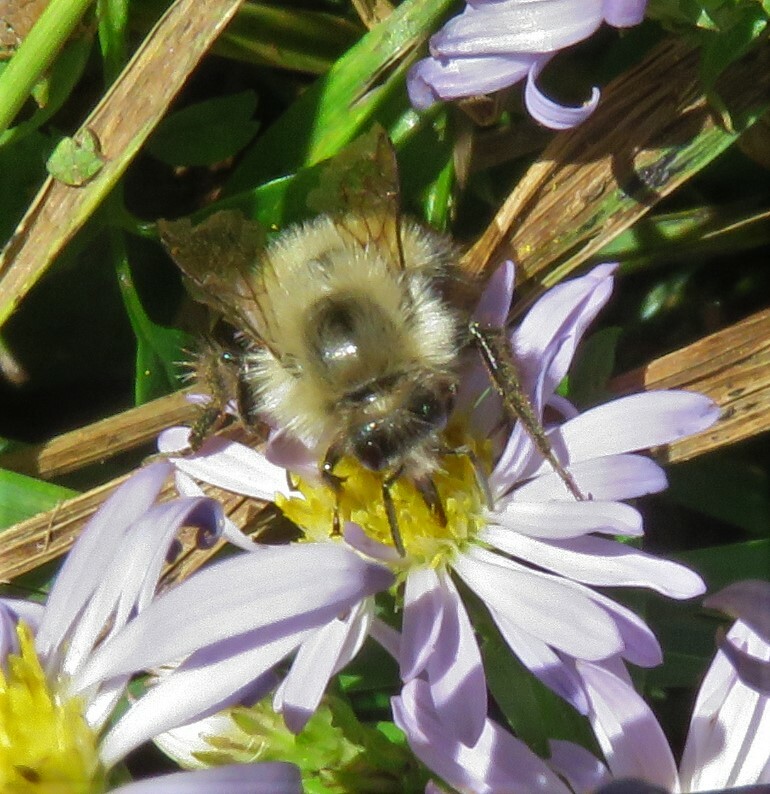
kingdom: Animalia
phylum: Arthropoda
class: Insecta
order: Hymenoptera
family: Apidae
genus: Pyrobombus
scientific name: Pyrobombus
